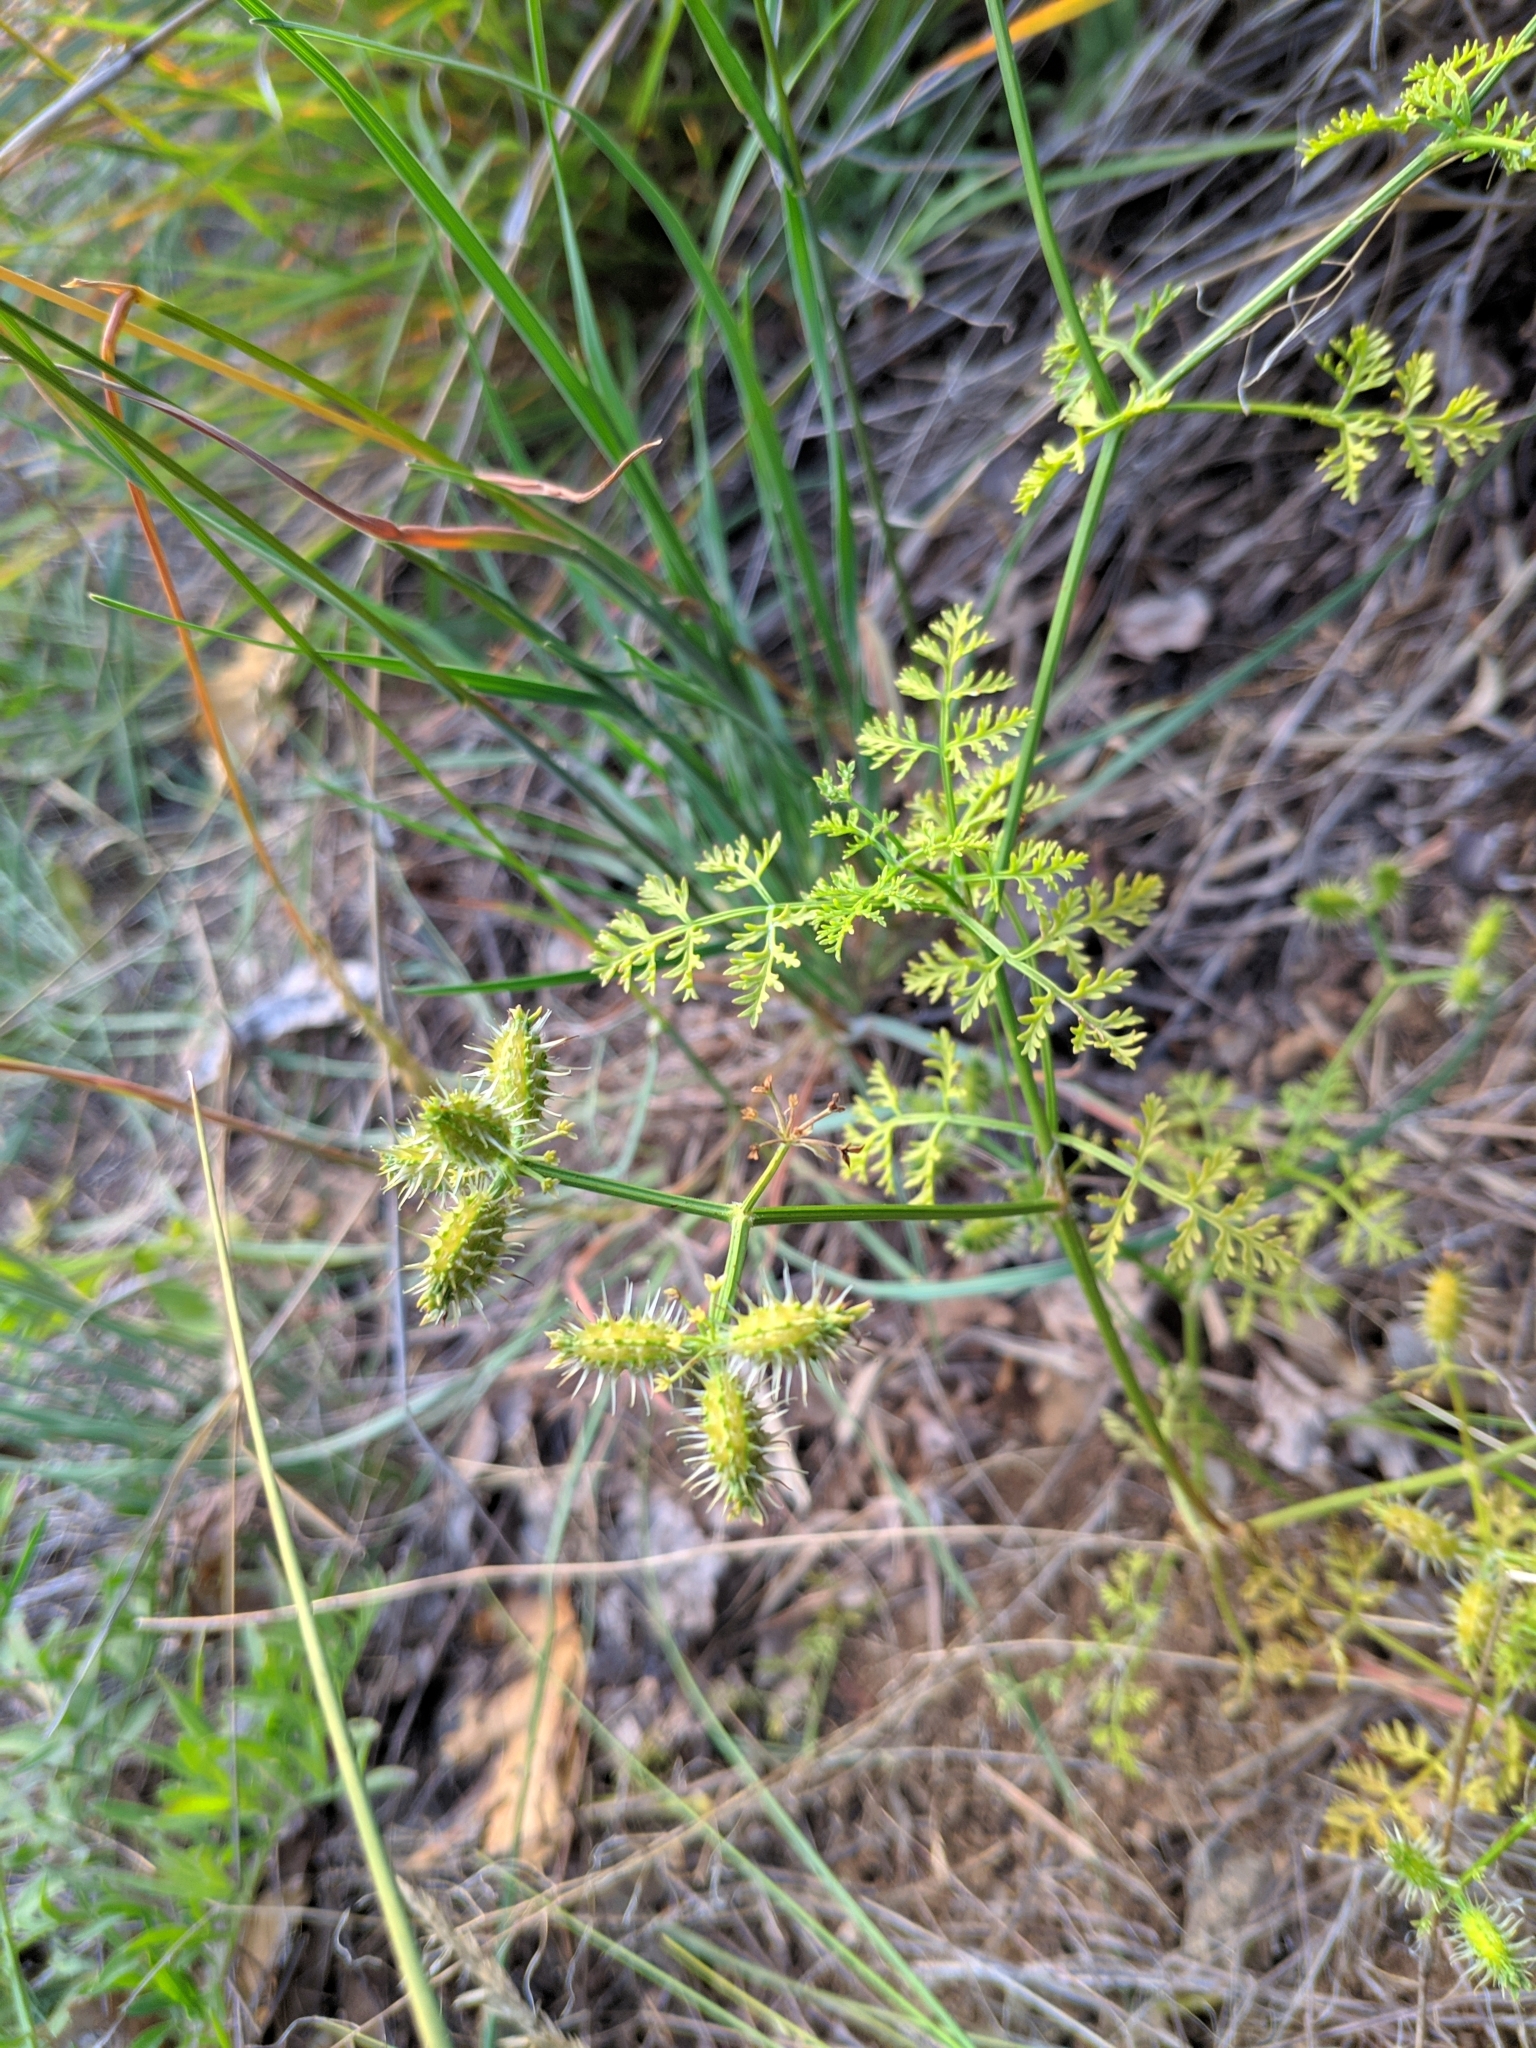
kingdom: Plantae
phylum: Tracheophyta
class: Magnoliopsida
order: Apiales
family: Apiaceae
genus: Caucalis
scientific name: Caucalis platycarpos
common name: Small bur-parsley
